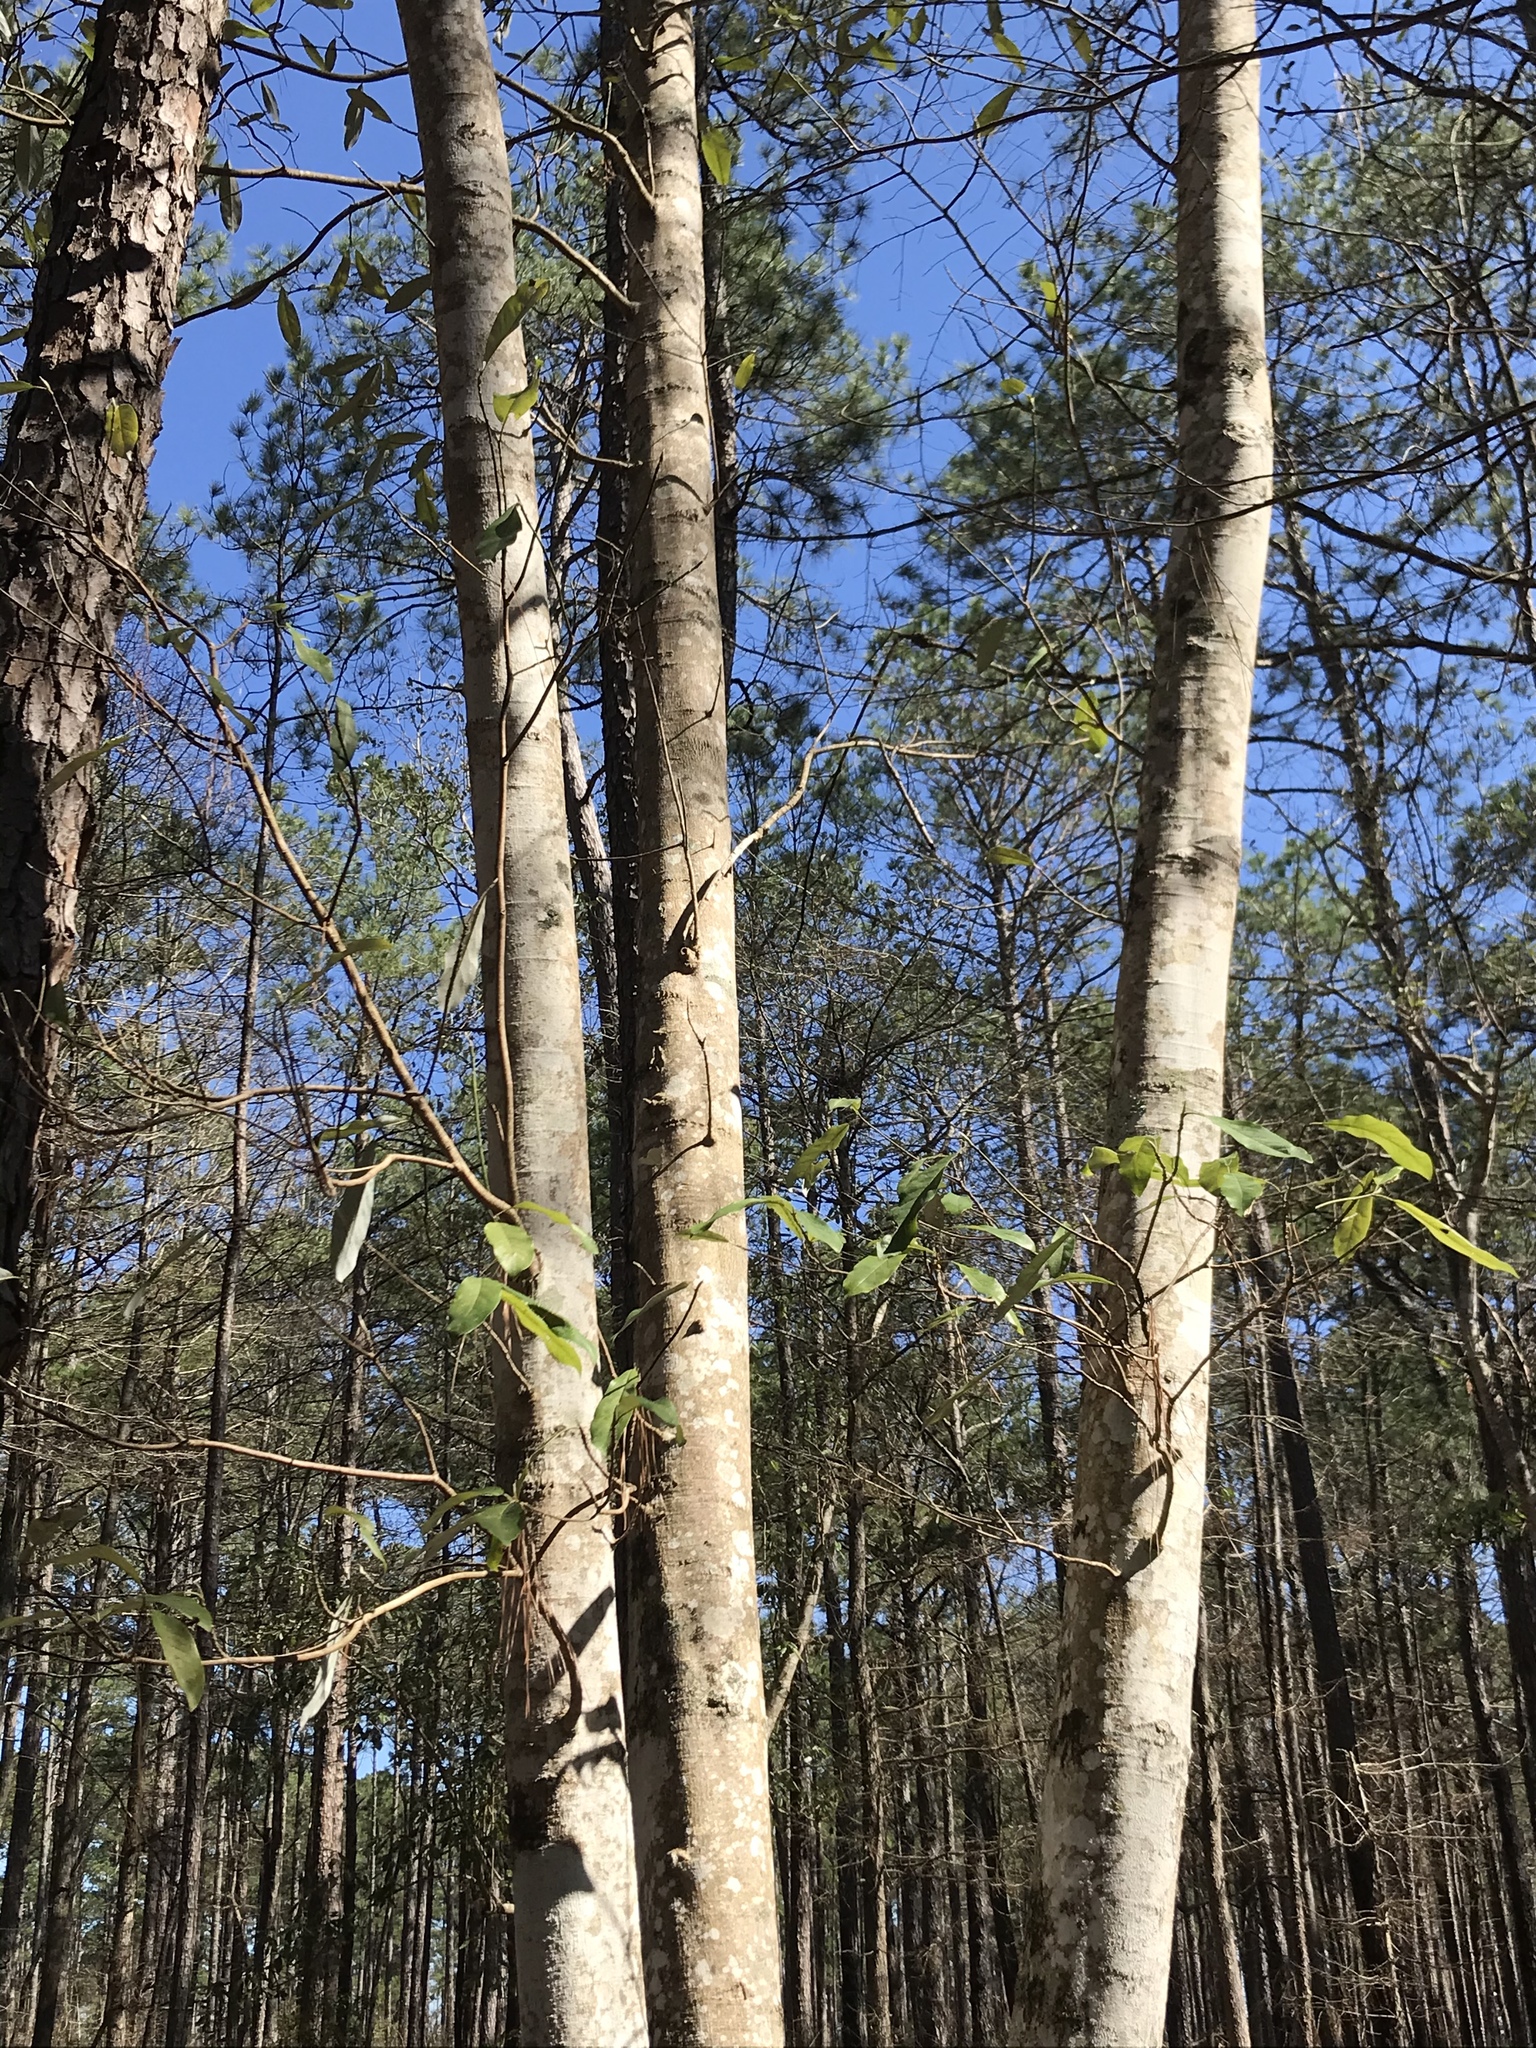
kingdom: Plantae
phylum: Tracheophyta
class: Magnoliopsida
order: Magnoliales
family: Magnoliaceae
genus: Magnolia
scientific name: Magnolia virginiana
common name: Swamp bay
